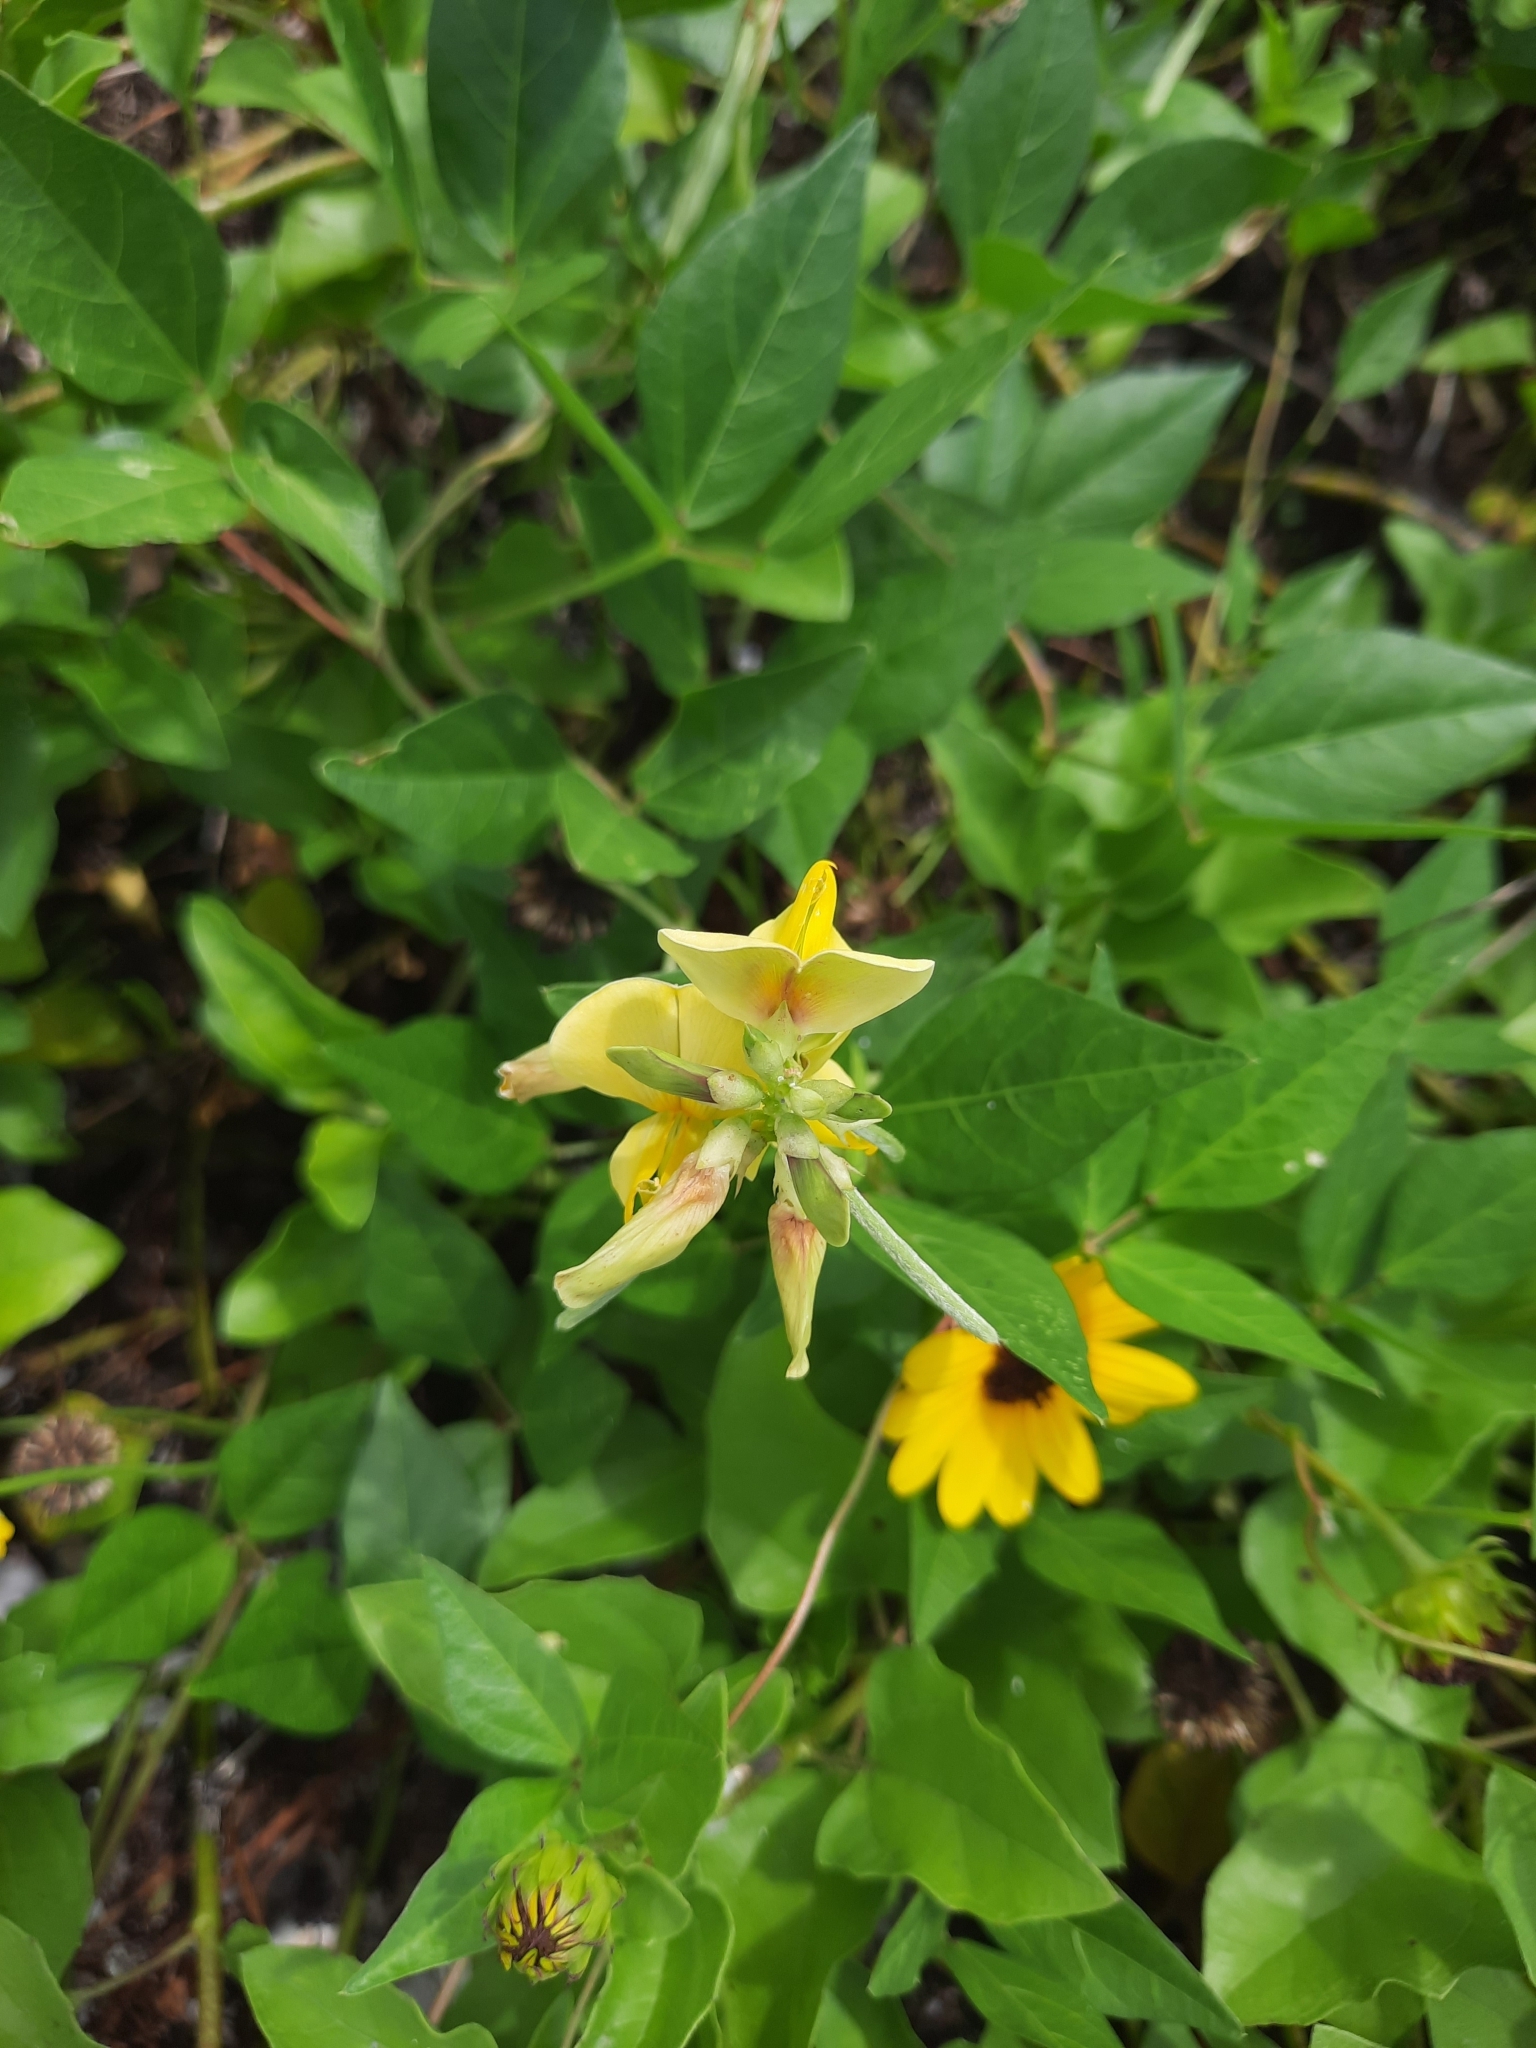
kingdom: Plantae
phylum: Tracheophyta
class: Magnoliopsida
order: Fabales
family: Fabaceae
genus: Vigna
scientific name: Vigna luteola
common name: Hairypod cowpea
